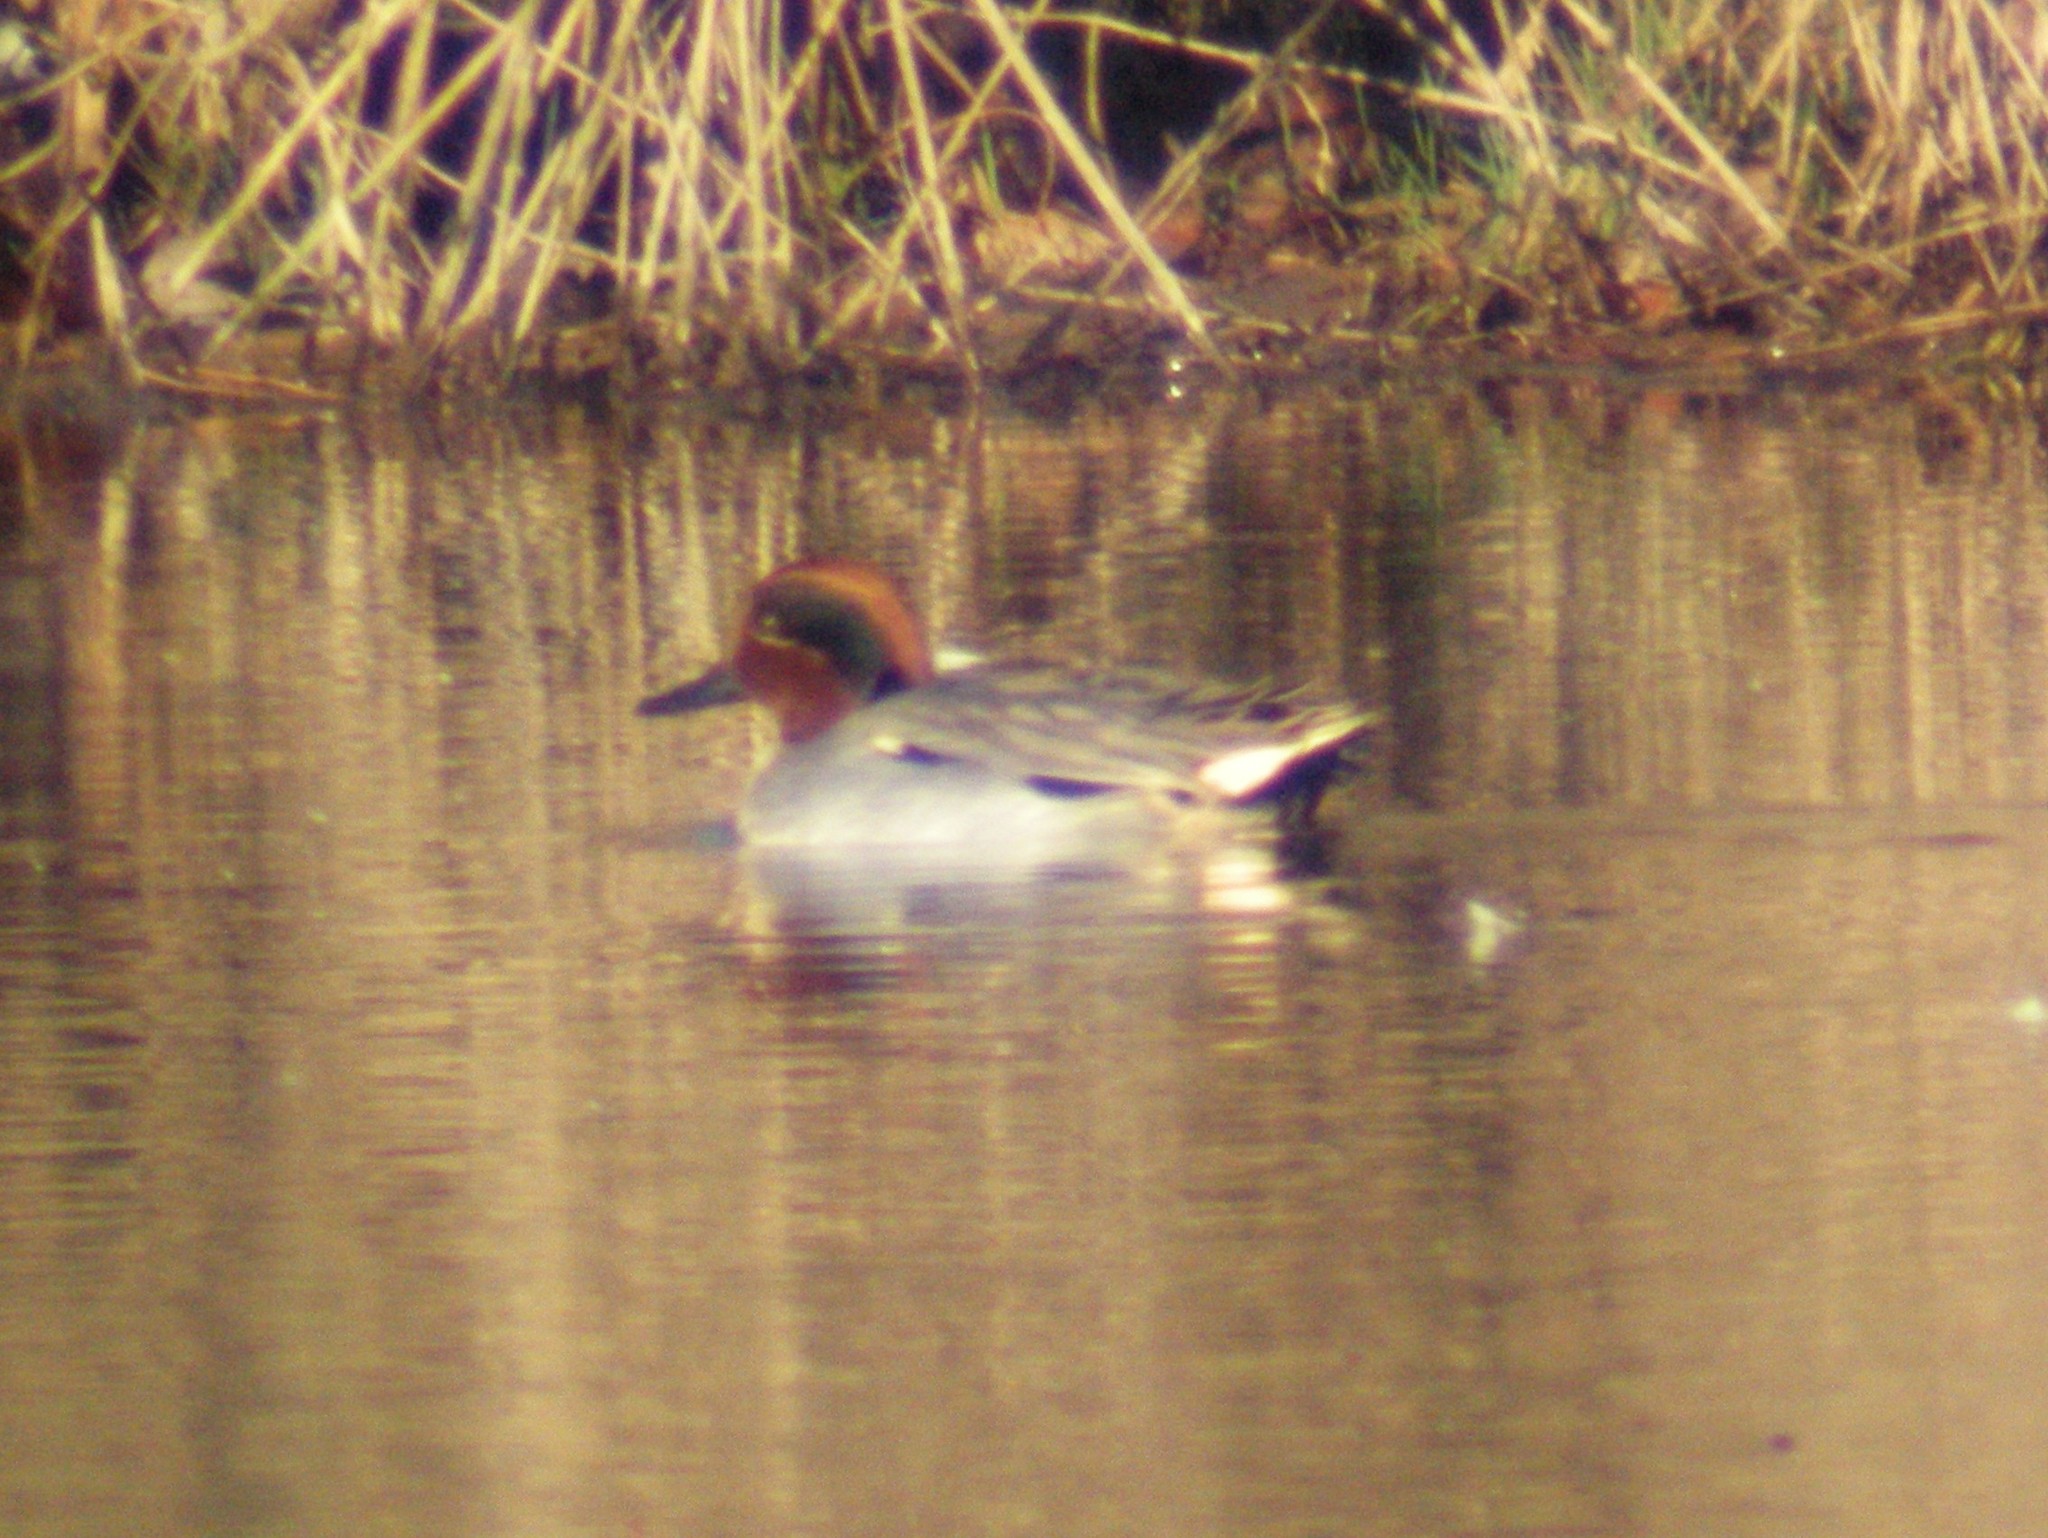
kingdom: Animalia
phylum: Chordata
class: Aves
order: Anseriformes
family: Anatidae
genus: Anas
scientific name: Anas crecca
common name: Eurasian teal
